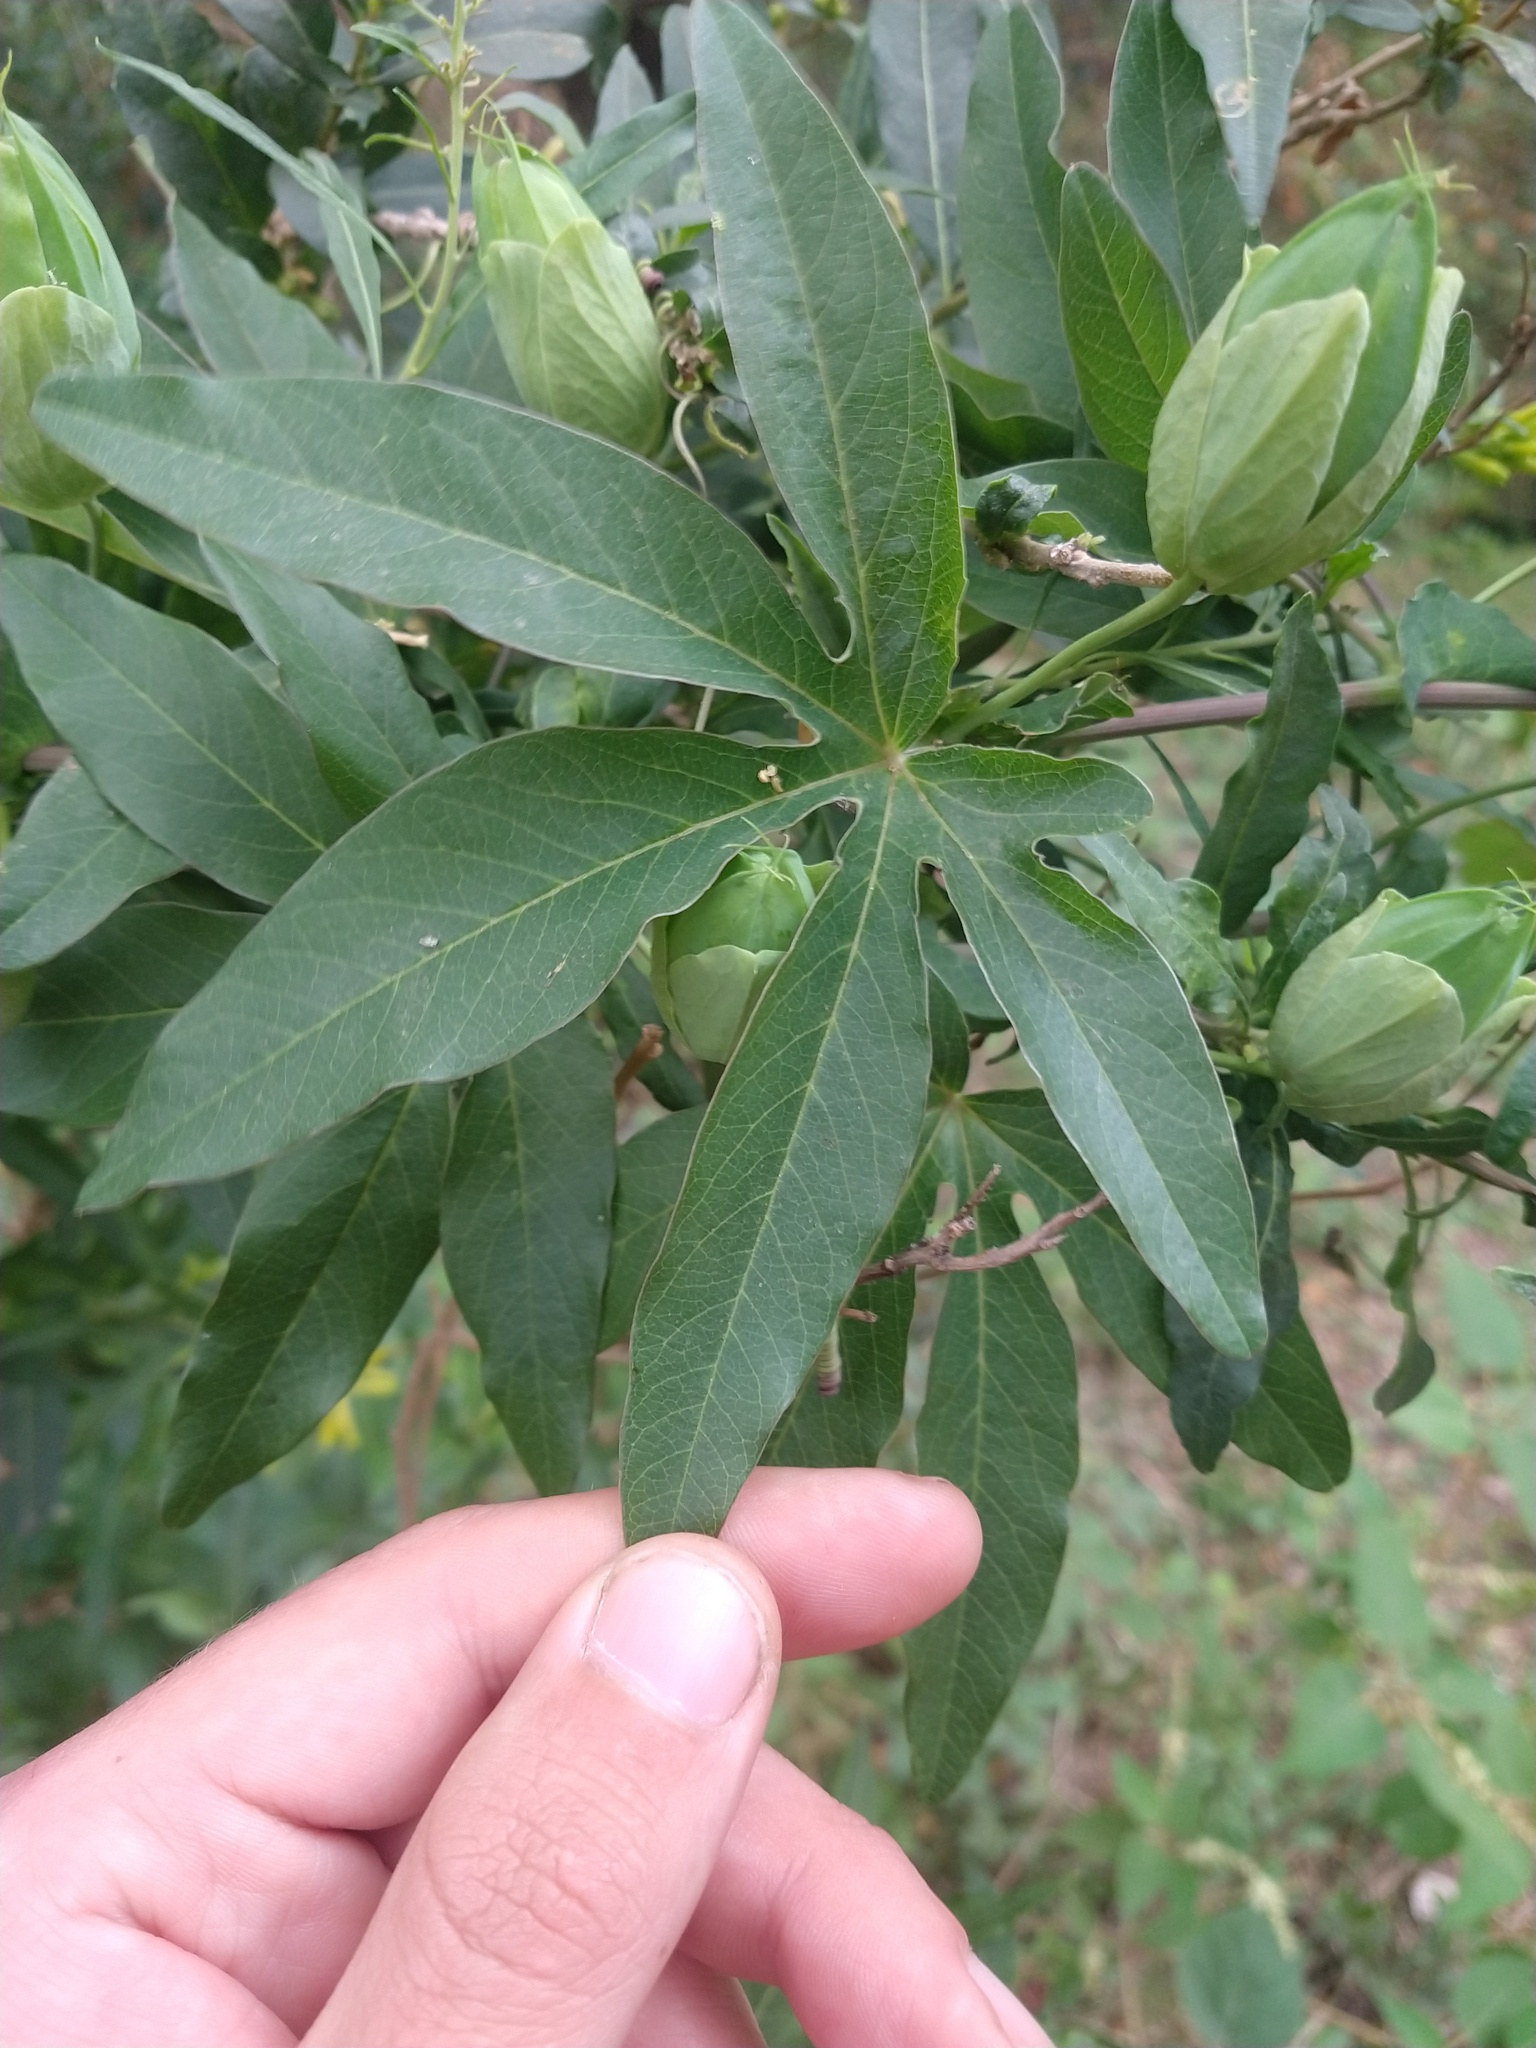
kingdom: Plantae
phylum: Tracheophyta
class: Magnoliopsida
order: Malpighiales
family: Passifloraceae
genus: Passiflora
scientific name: Passiflora caerulea
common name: Blue passionflower
